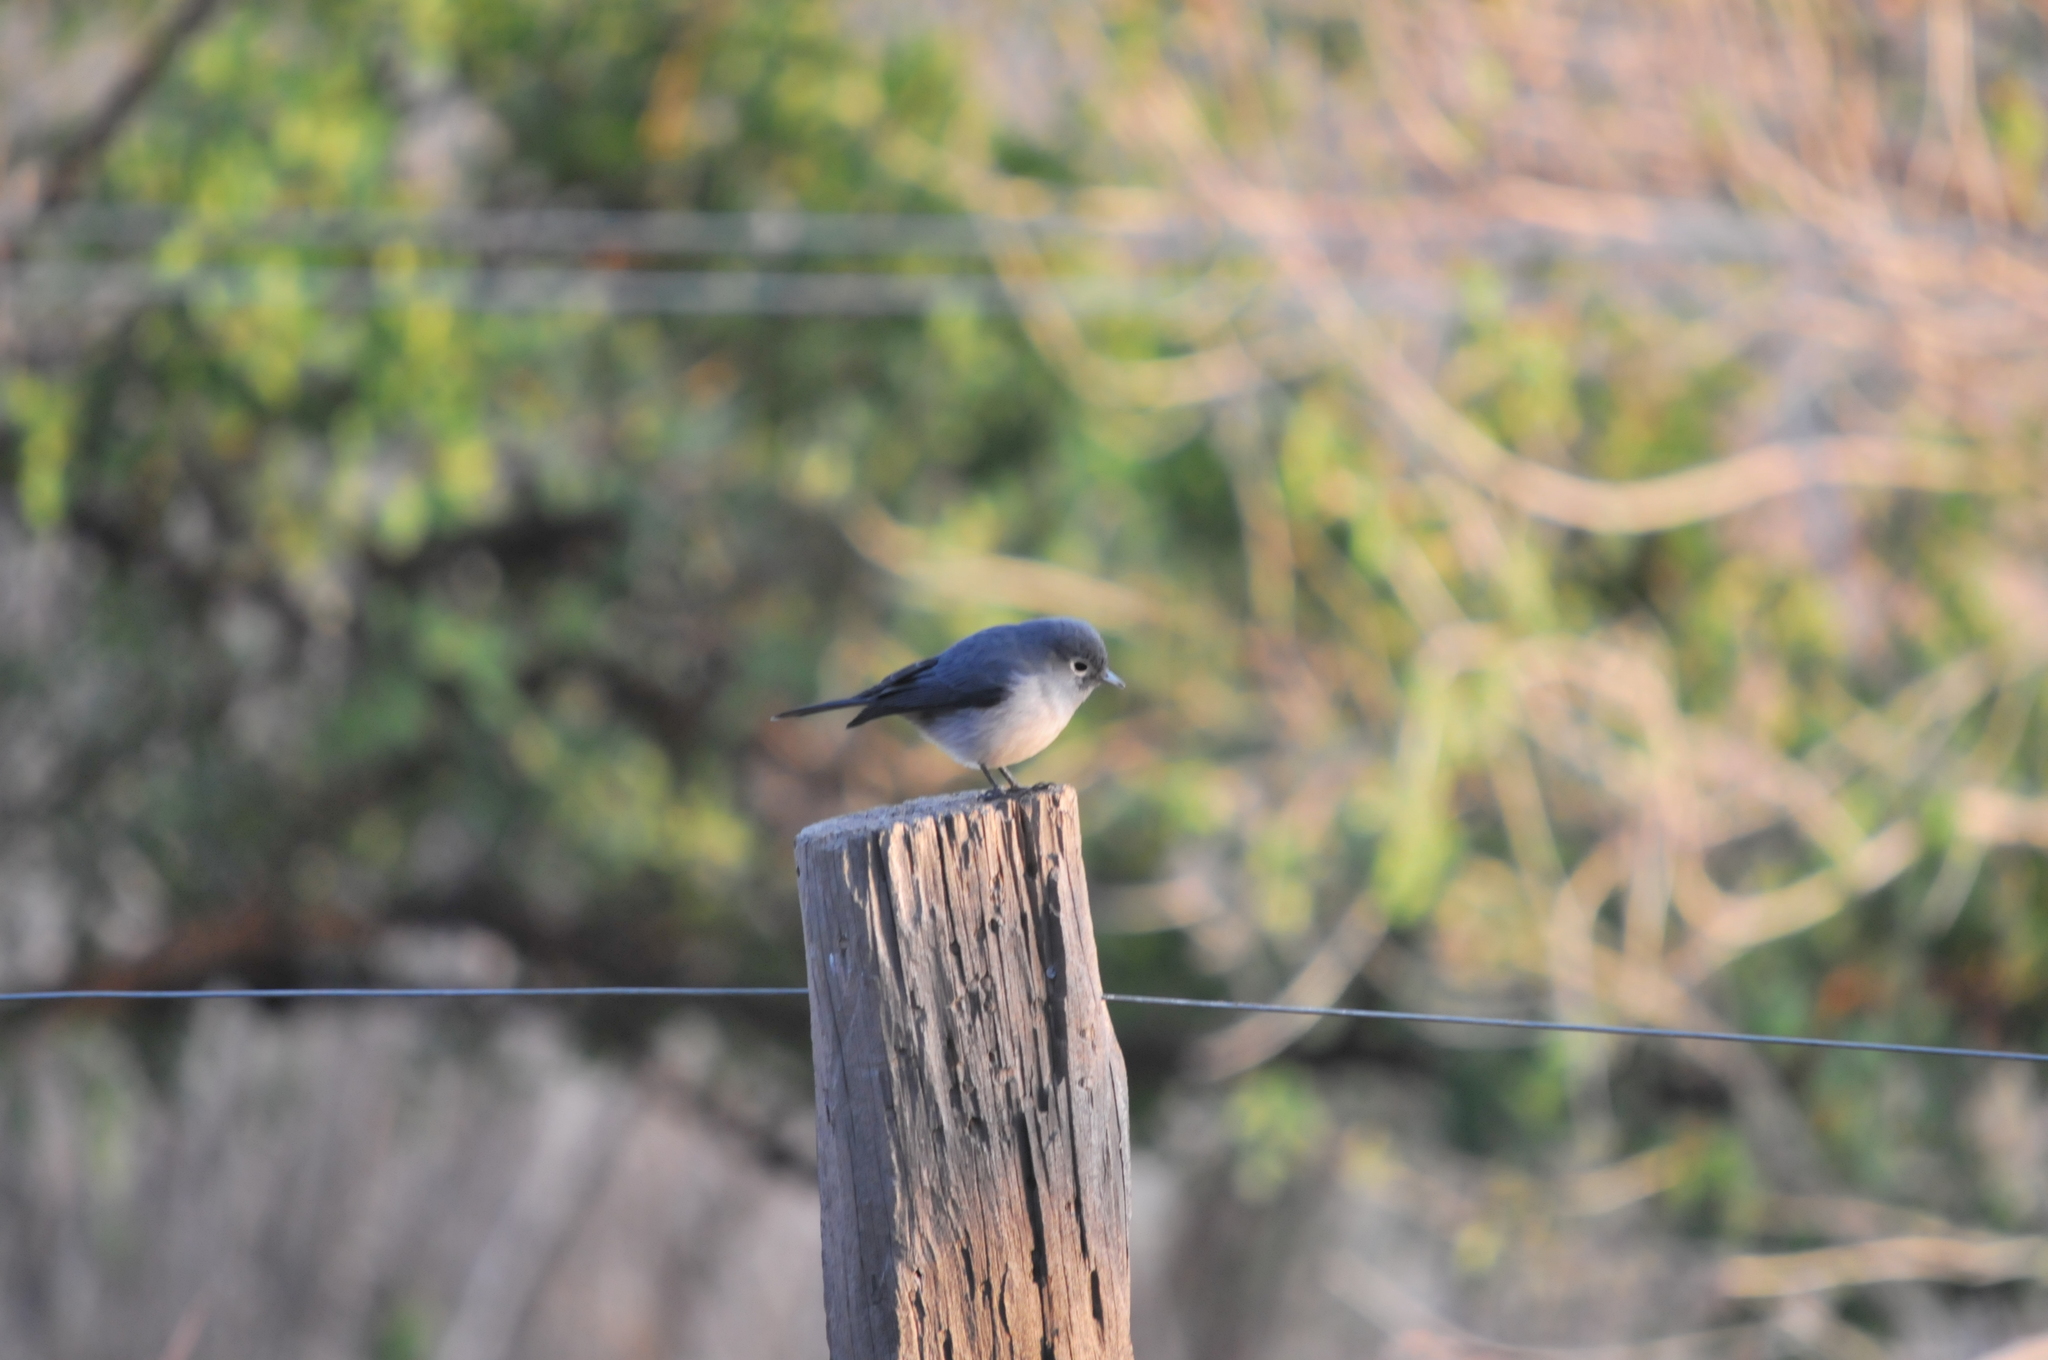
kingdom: Animalia
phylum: Chordata
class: Aves
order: Passeriformes
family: Muscicapidae
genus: Dioptrornis
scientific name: Dioptrornis fischeri
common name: White-eyed slaty flycatcher
